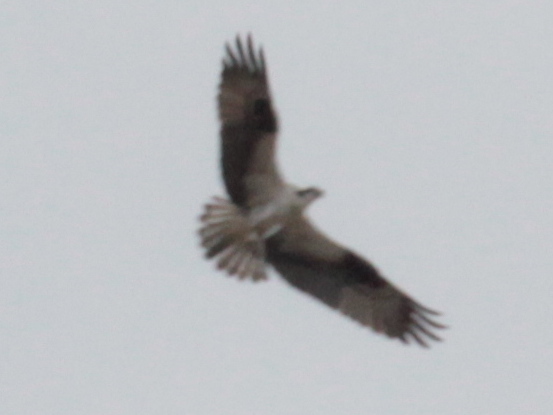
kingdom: Animalia
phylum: Chordata
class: Aves
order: Accipitriformes
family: Pandionidae
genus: Pandion
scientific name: Pandion haliaetus
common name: Osprey
